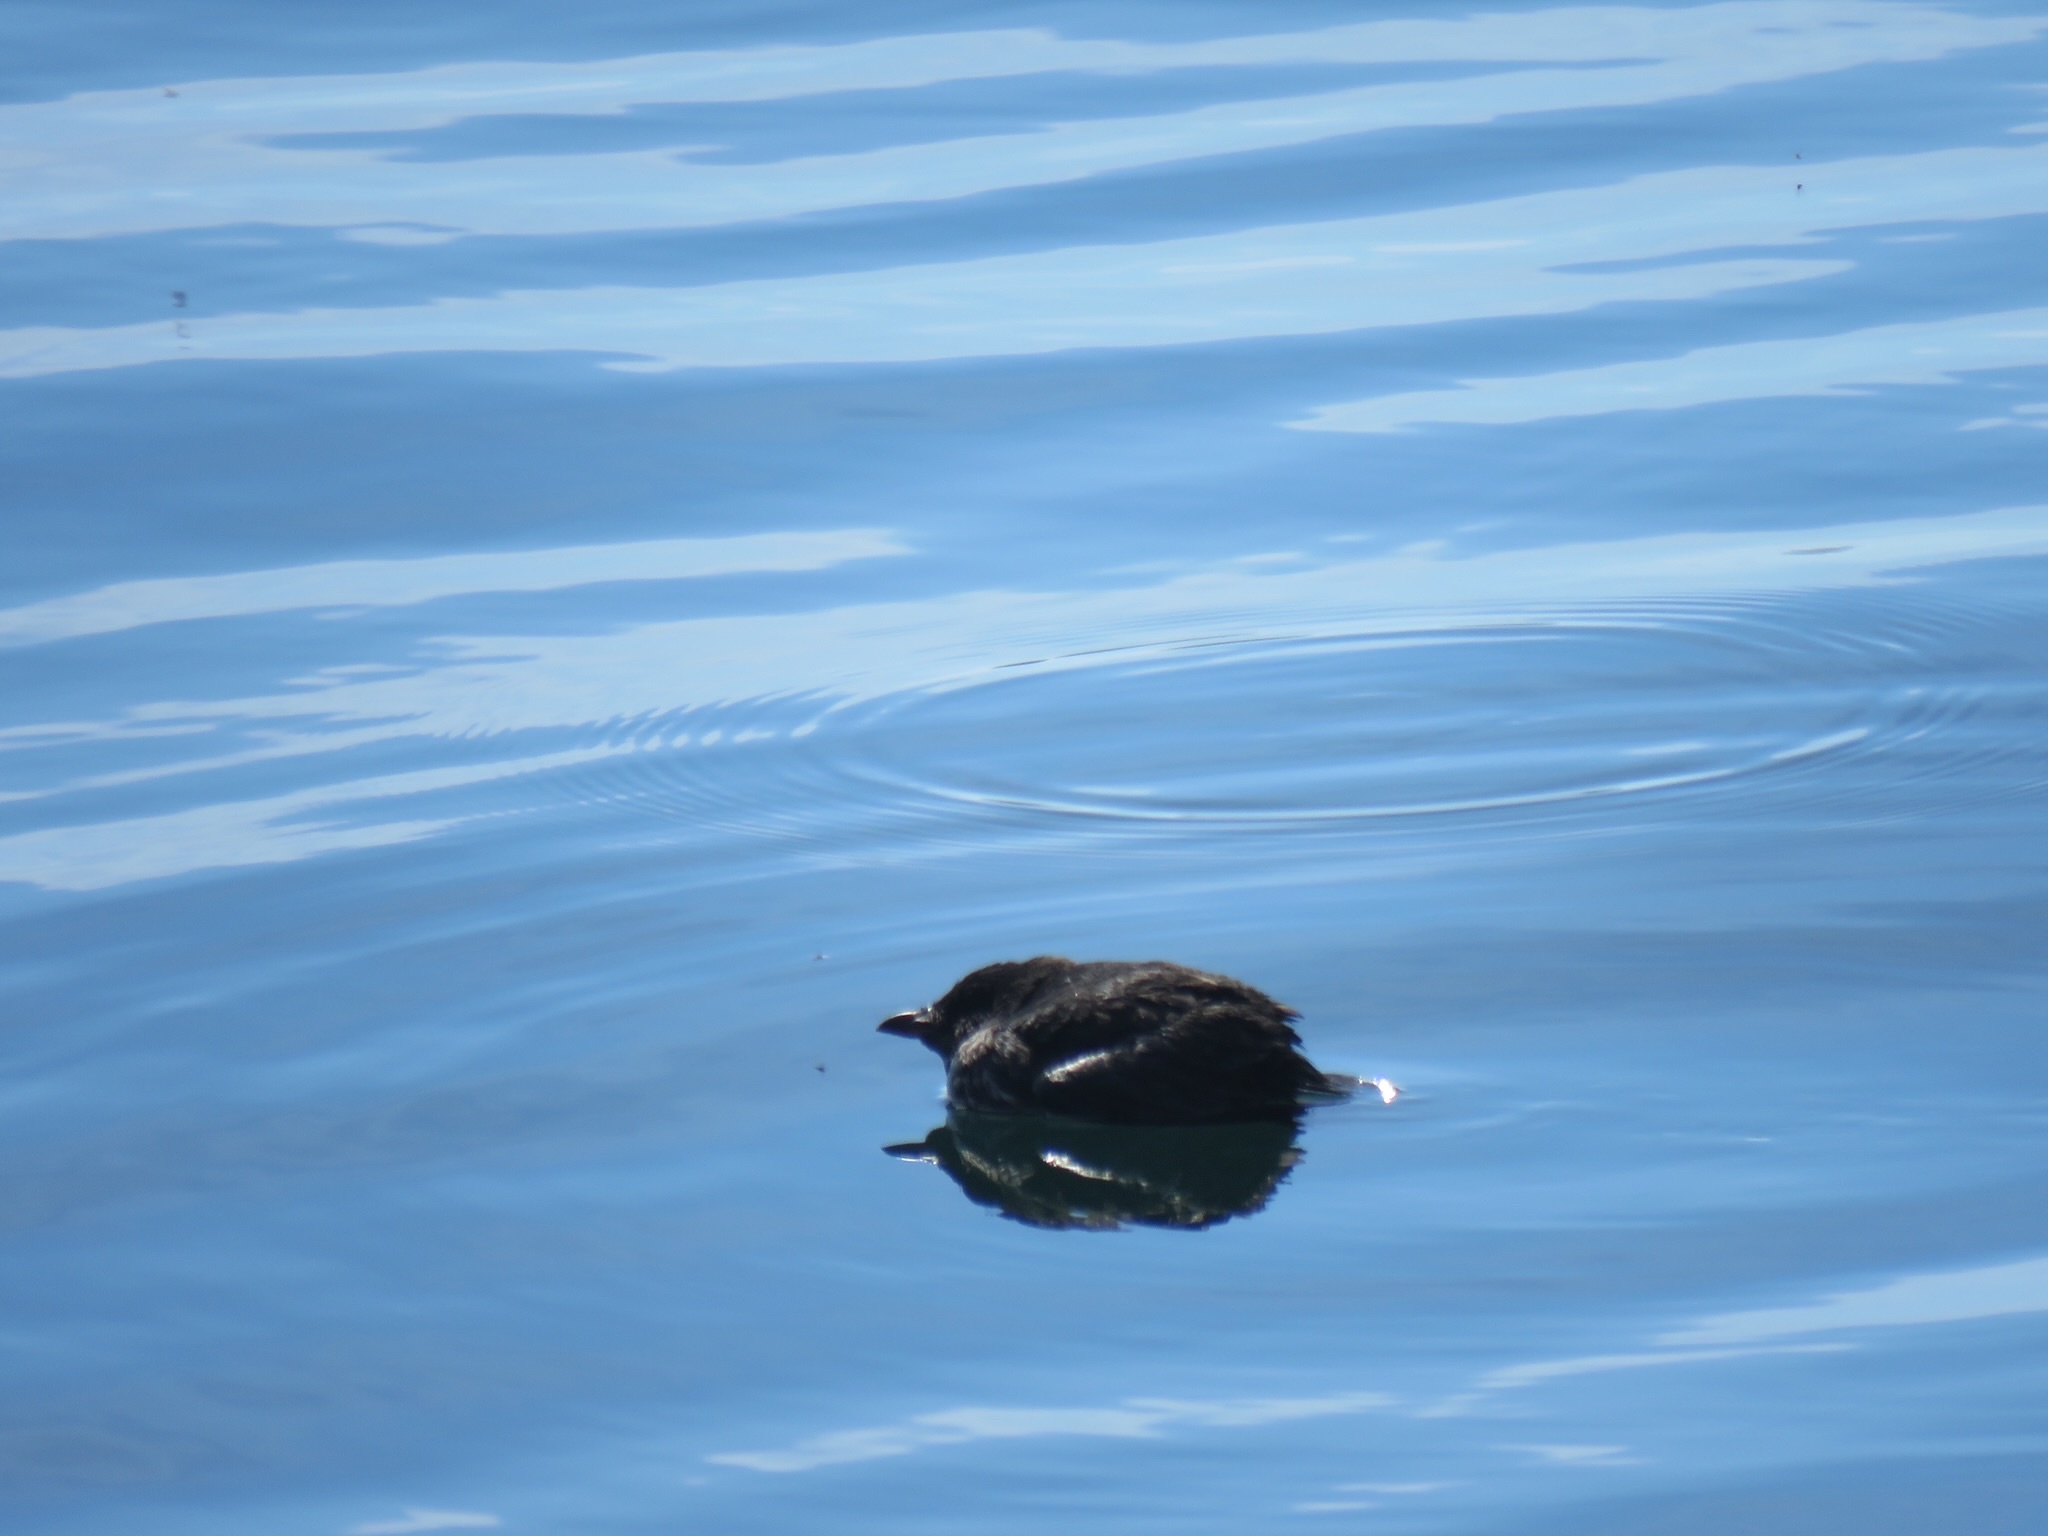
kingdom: Animalia
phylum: Chordata
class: Aves
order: Charadriiformes
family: Alcidae
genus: Cerorhinca
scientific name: Cerorhinca monocerata
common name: Rhinoceros auklet
